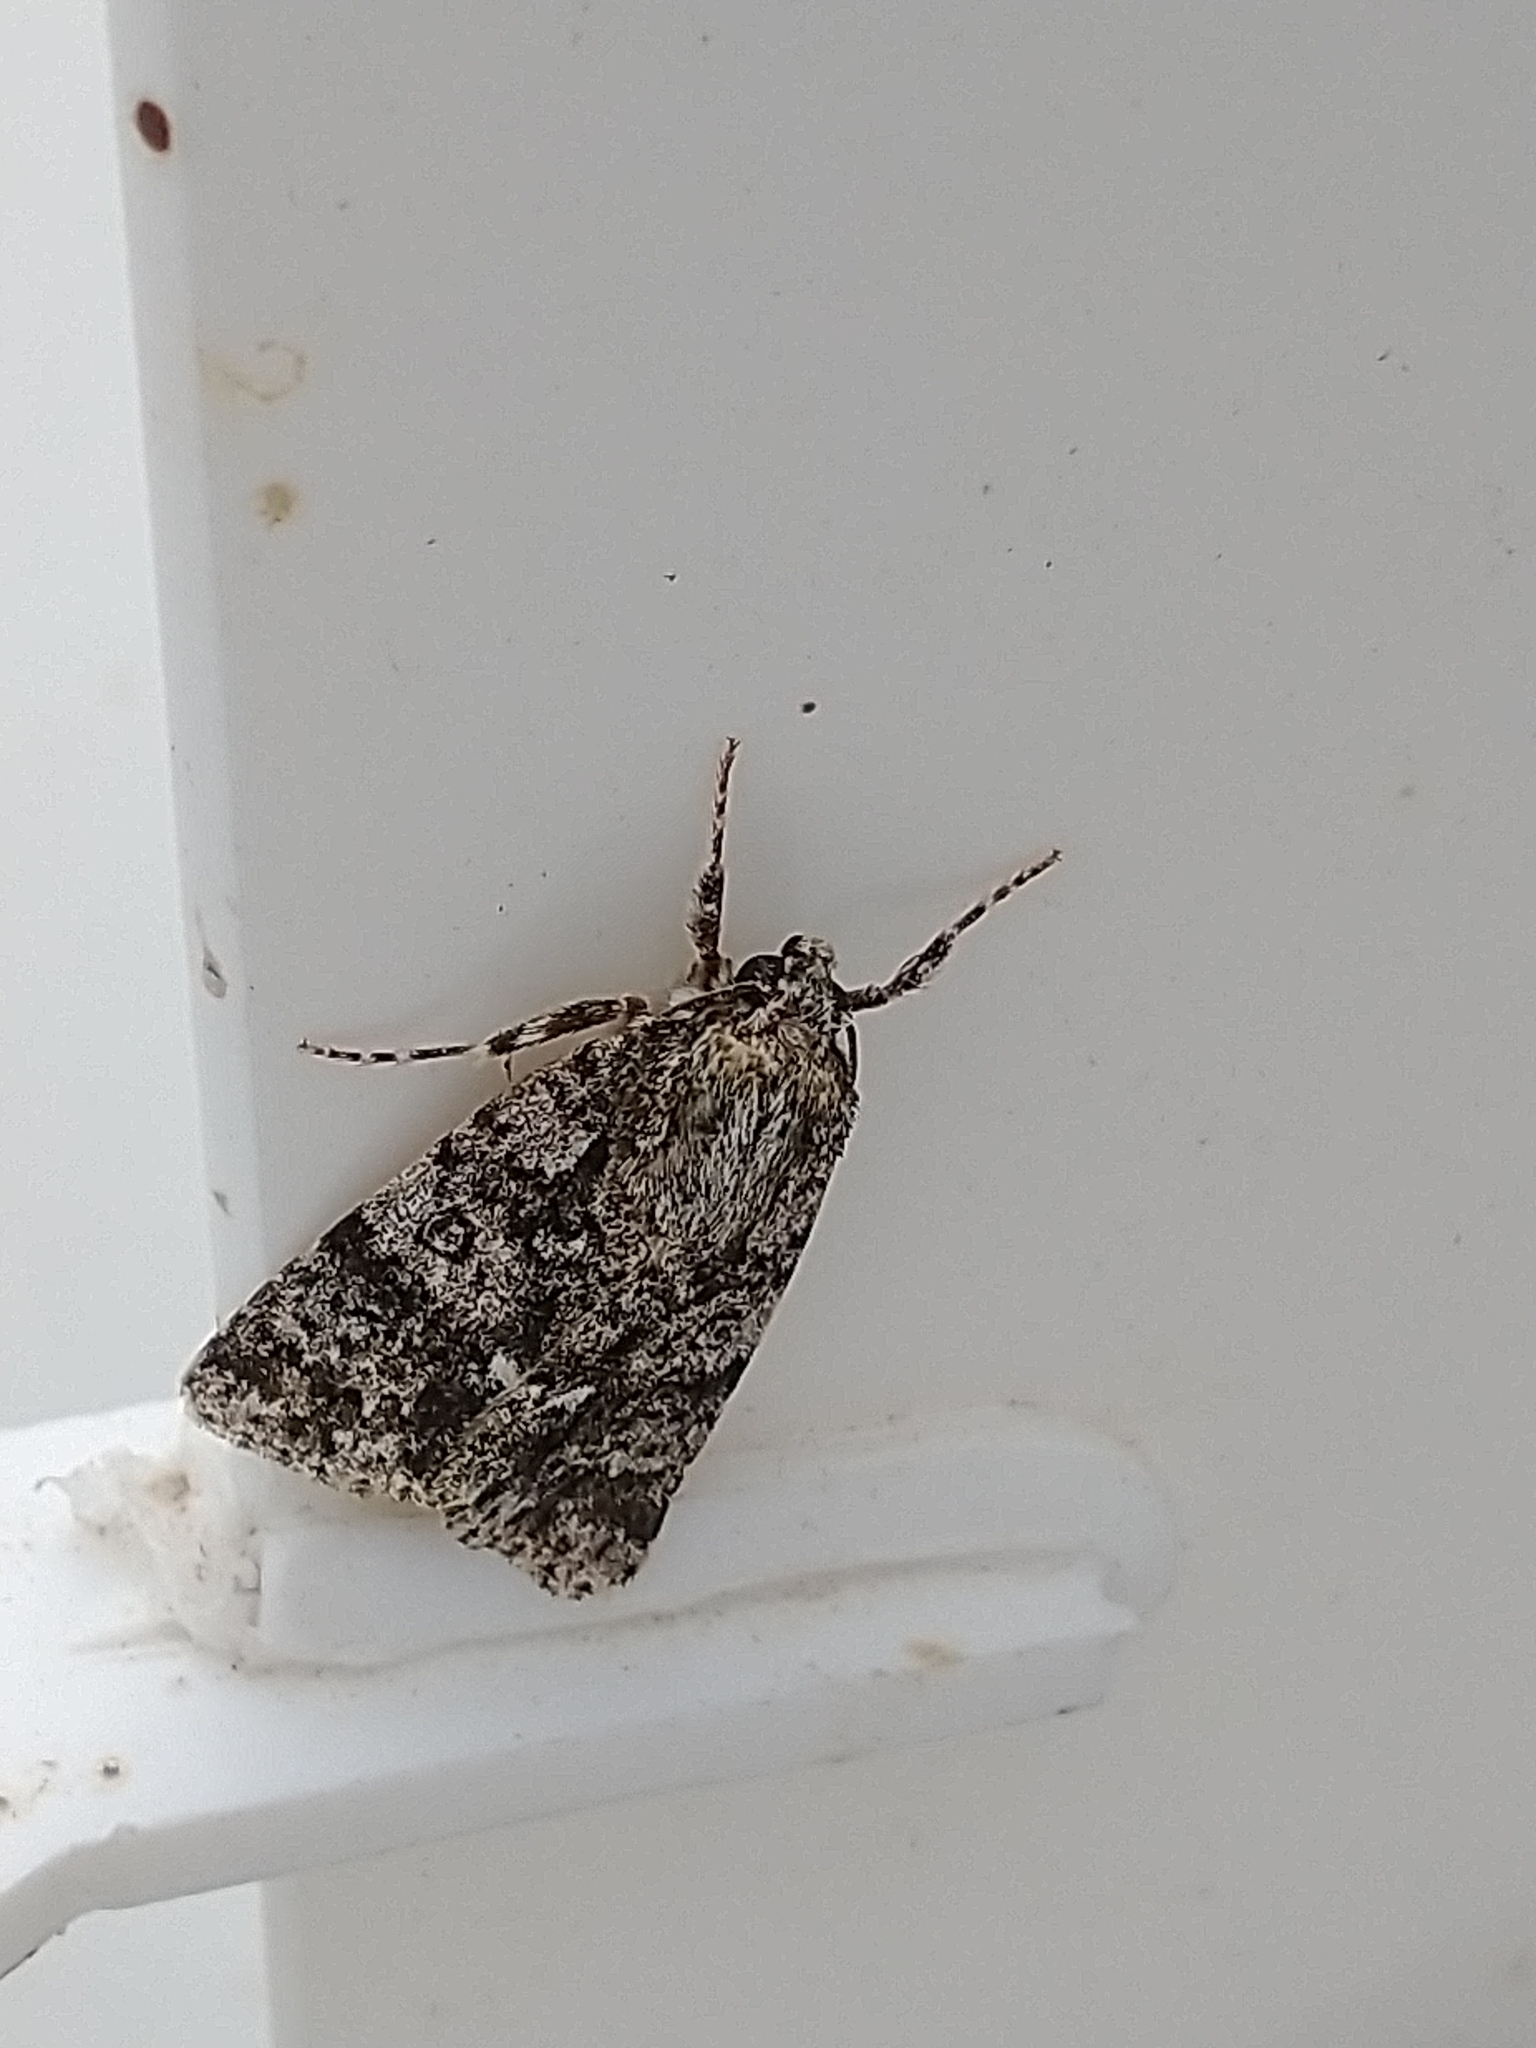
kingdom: Animalia
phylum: Arthropoda
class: Insecta
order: Lepidoptera
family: Noctuidae
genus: Acronicta
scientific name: Acronicta rumicis
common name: Knot grass
